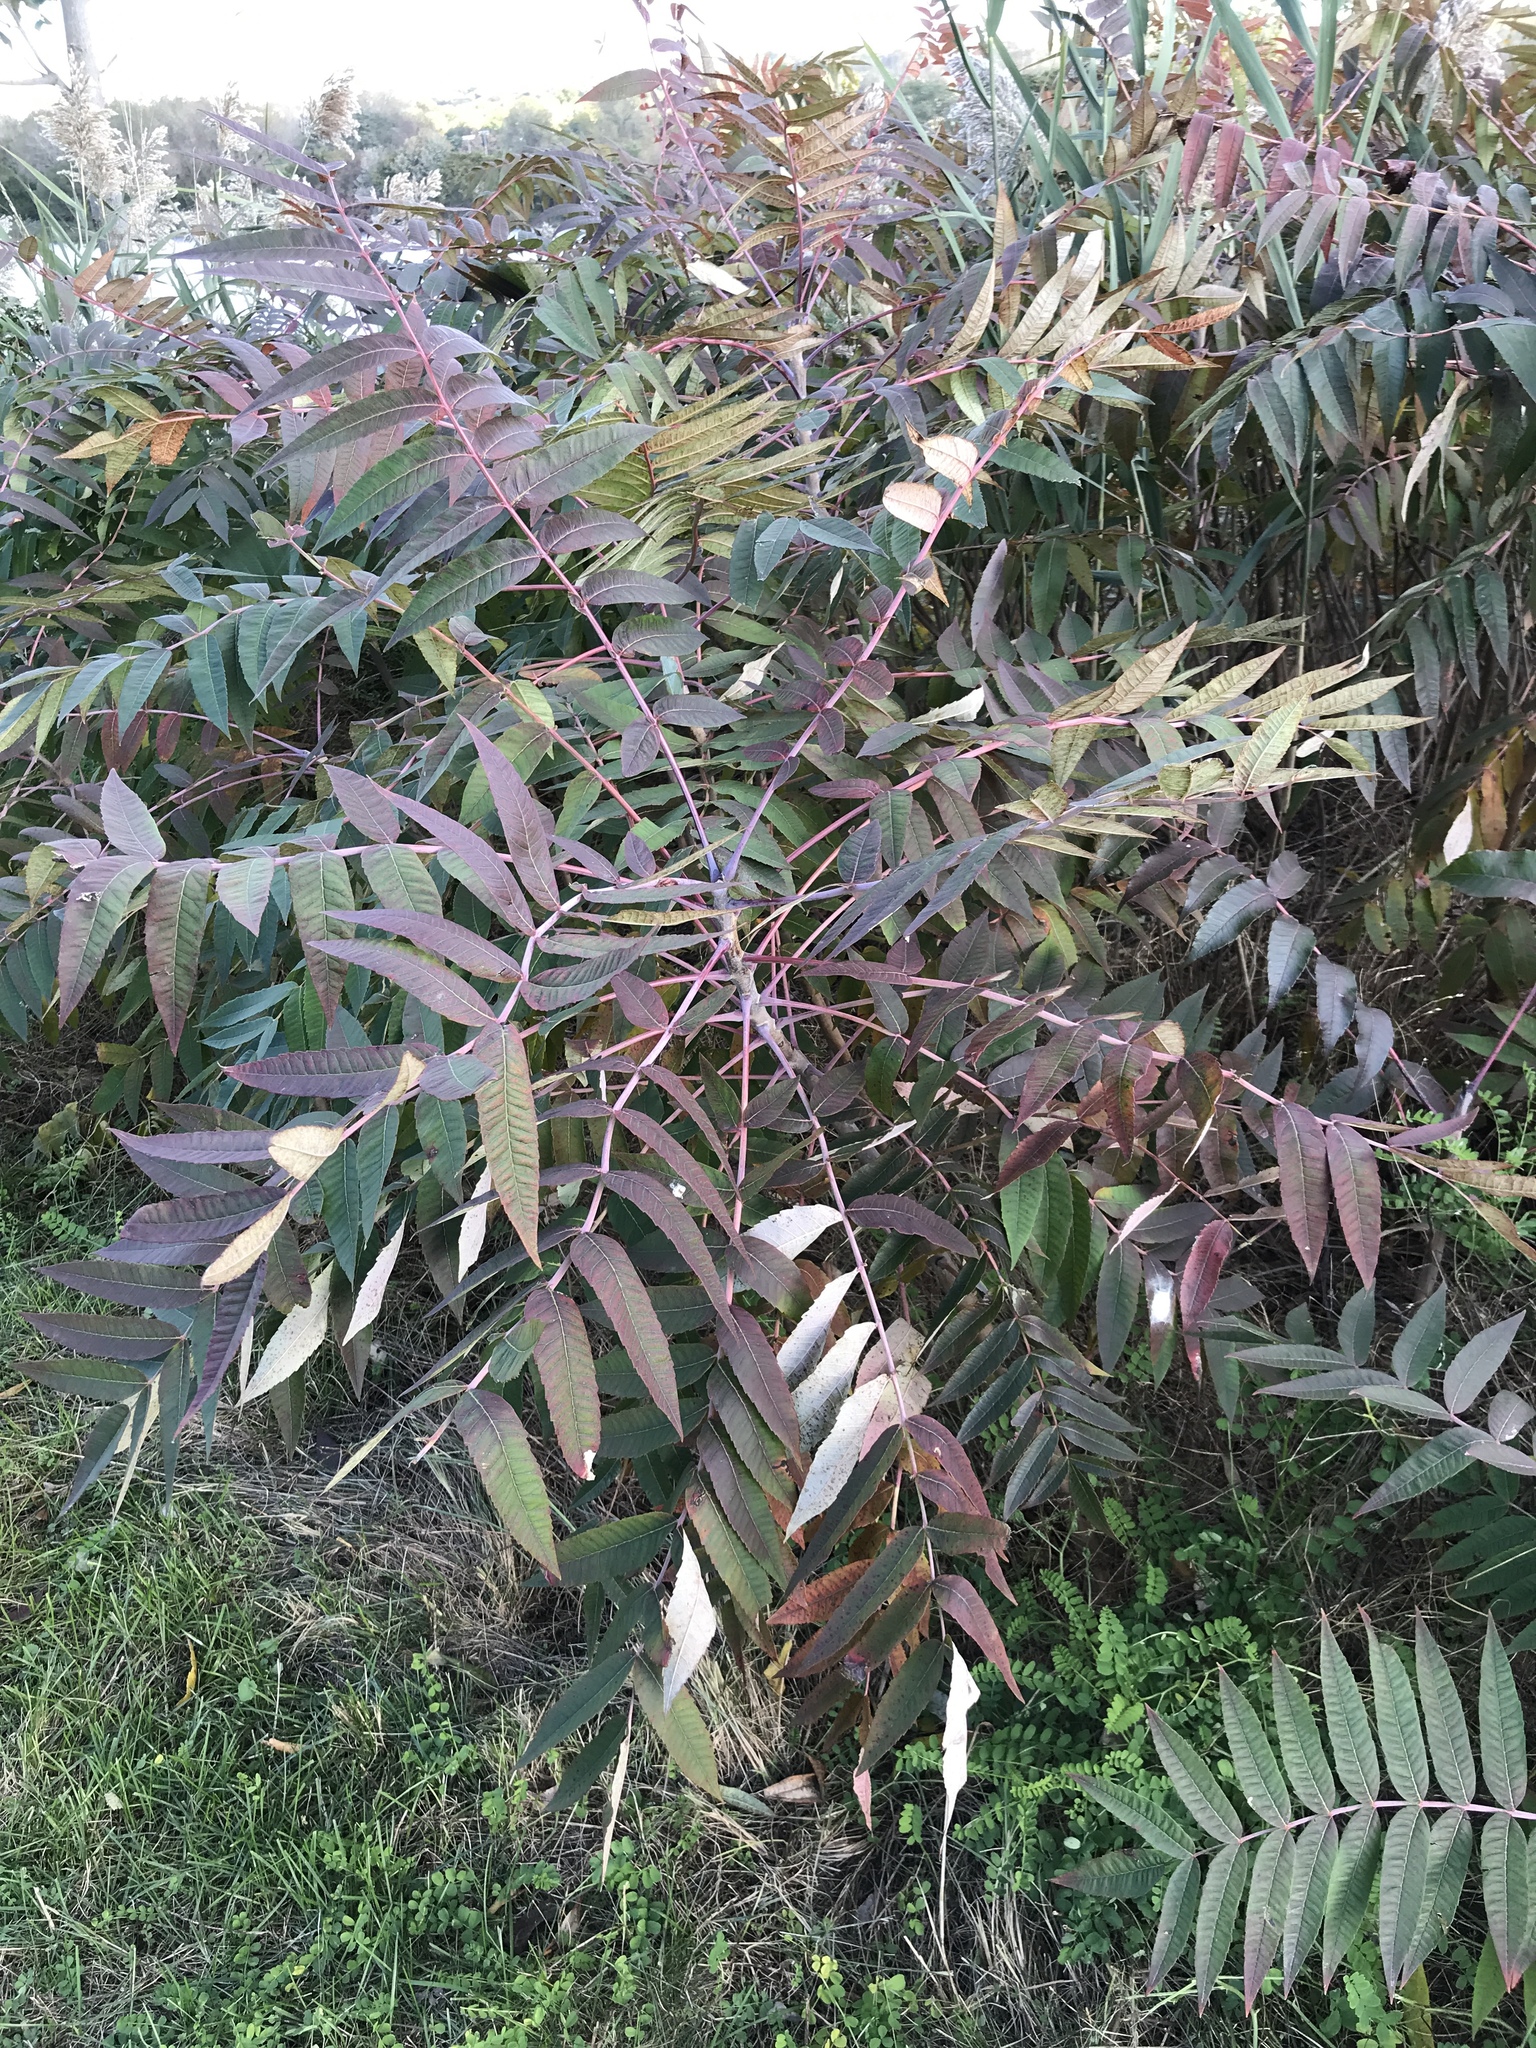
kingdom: Plantae
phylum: Tracheophyta
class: Magnoliopsida
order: Sapindales
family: Anacardiaceae
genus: Rhus
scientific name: Rhus glabra
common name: Scarlet sumac
